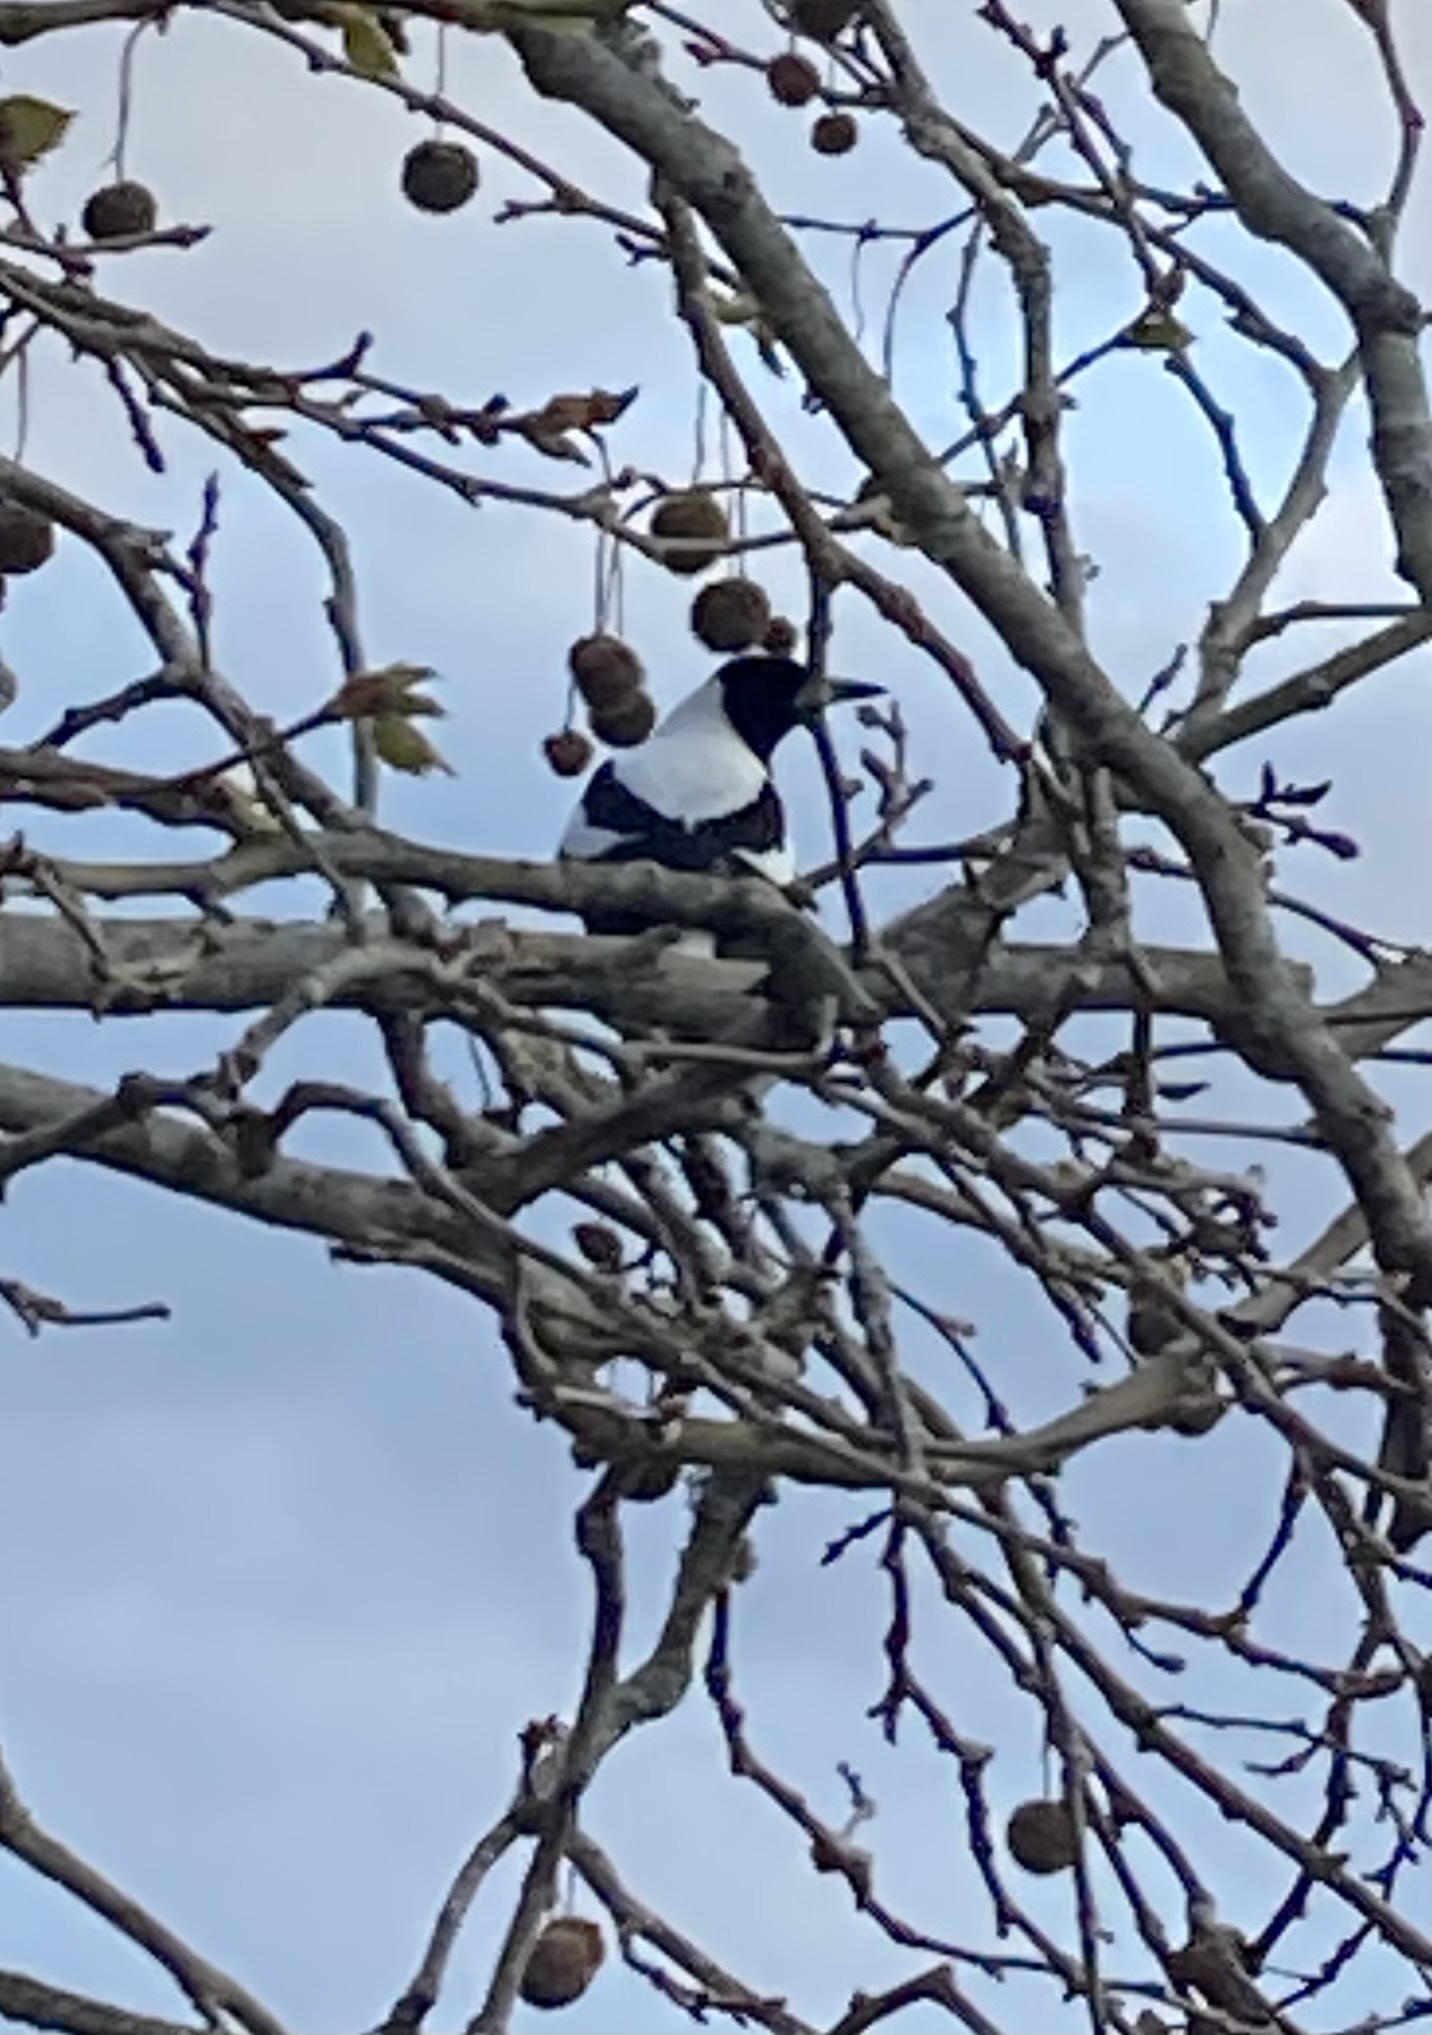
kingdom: Animalia
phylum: Chordata
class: Aves
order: Passeriformes
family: Cracticidae
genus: Gymnorhina
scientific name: Gymnorhina tibicen
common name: Australian magpie
